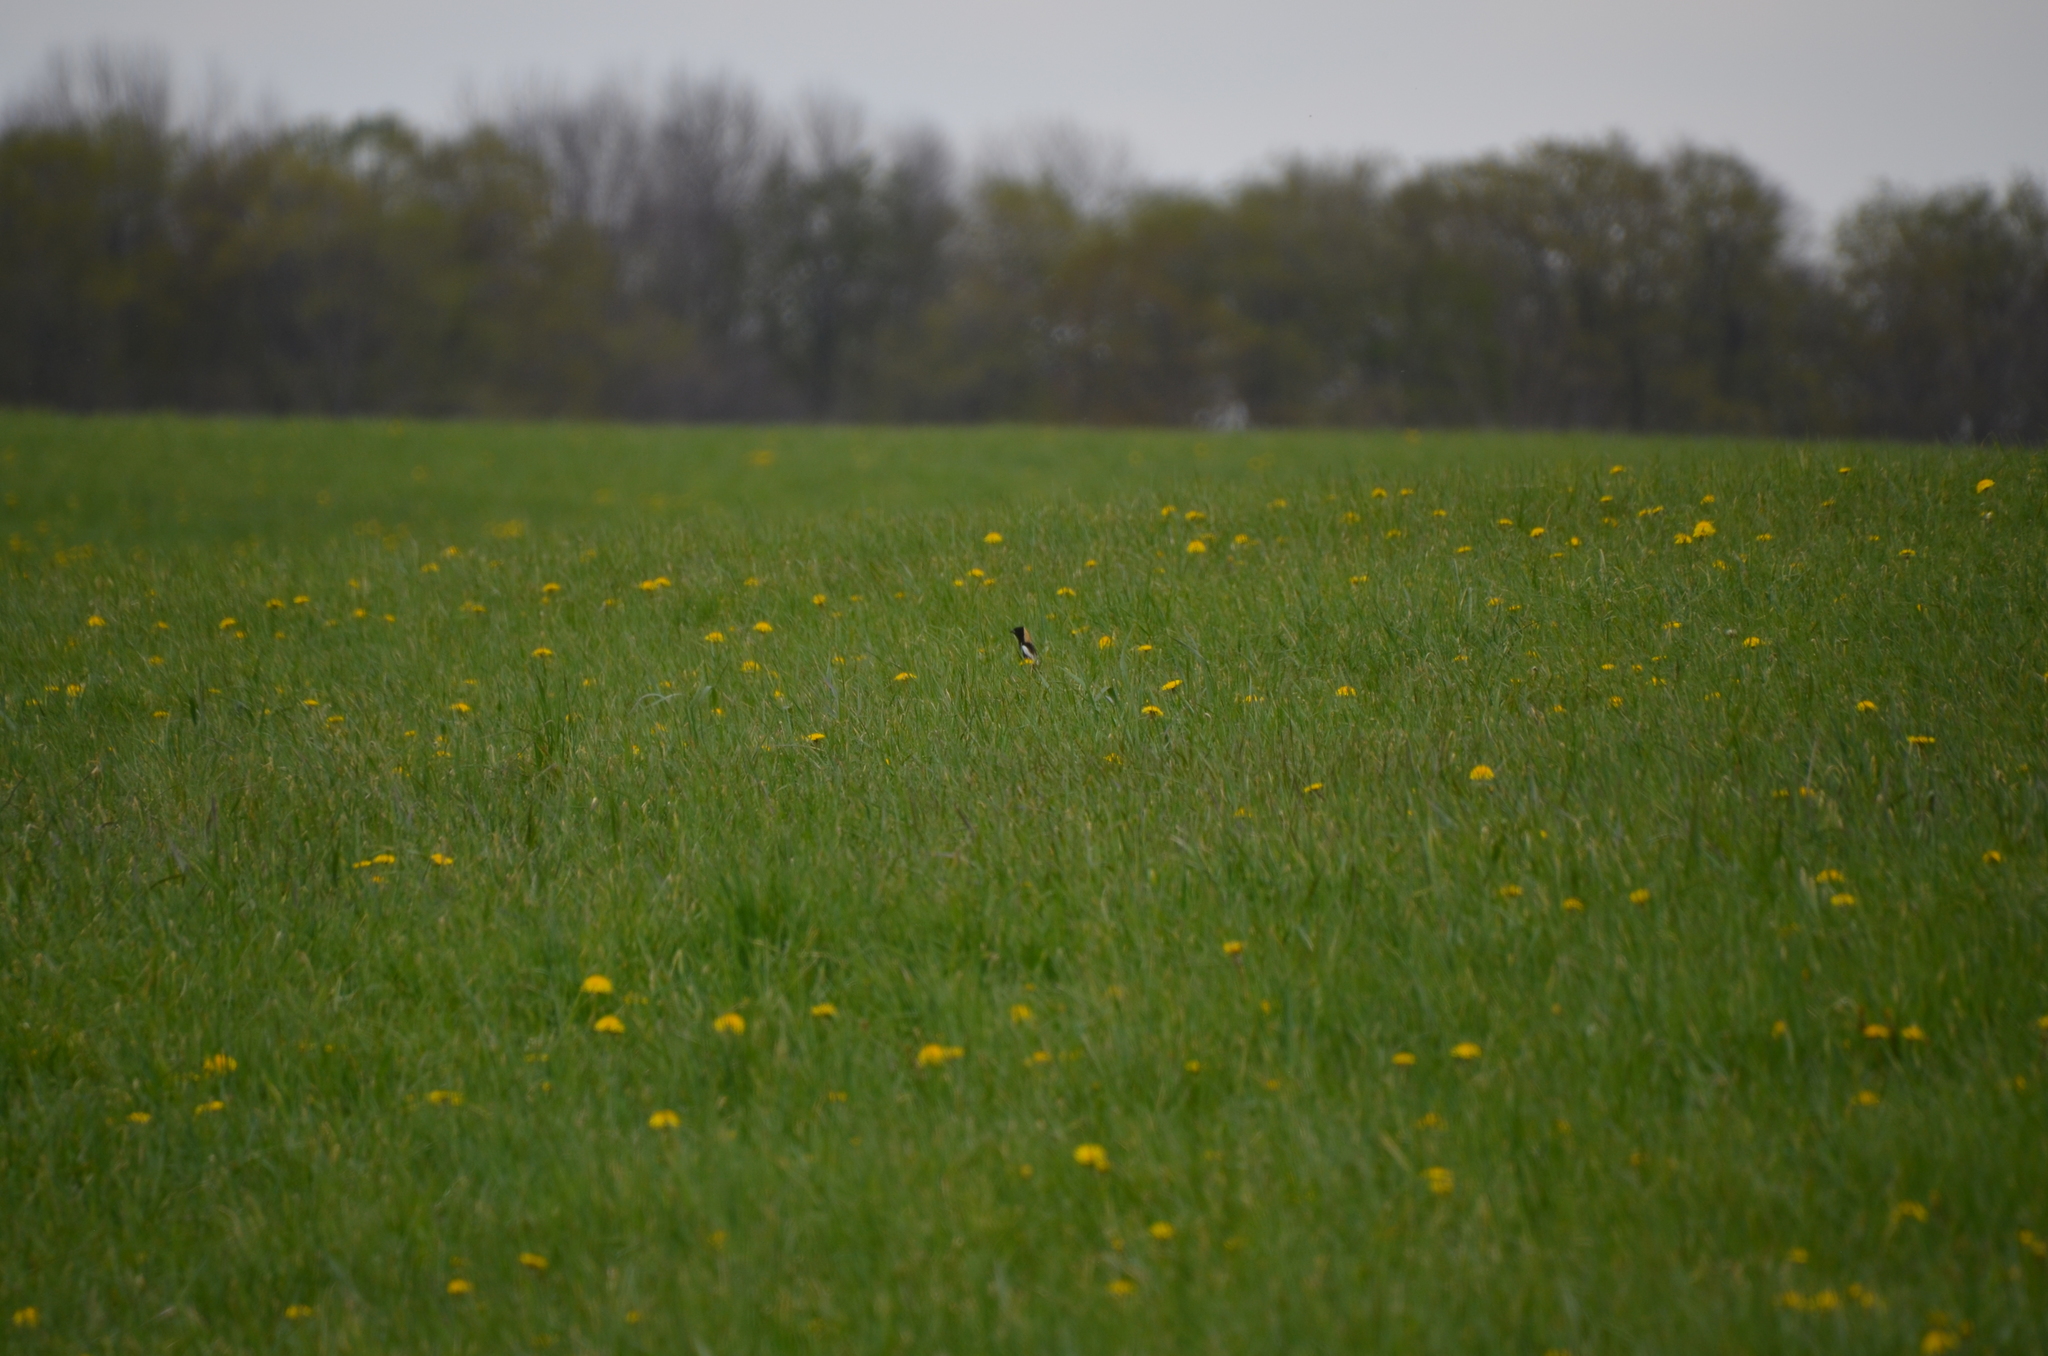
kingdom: Animalia
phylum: Chordata
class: Aves
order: Passeriformes
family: Icteridae
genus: Dolichonyx
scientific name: Dolichonyx oryzivorus
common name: Bobolink
